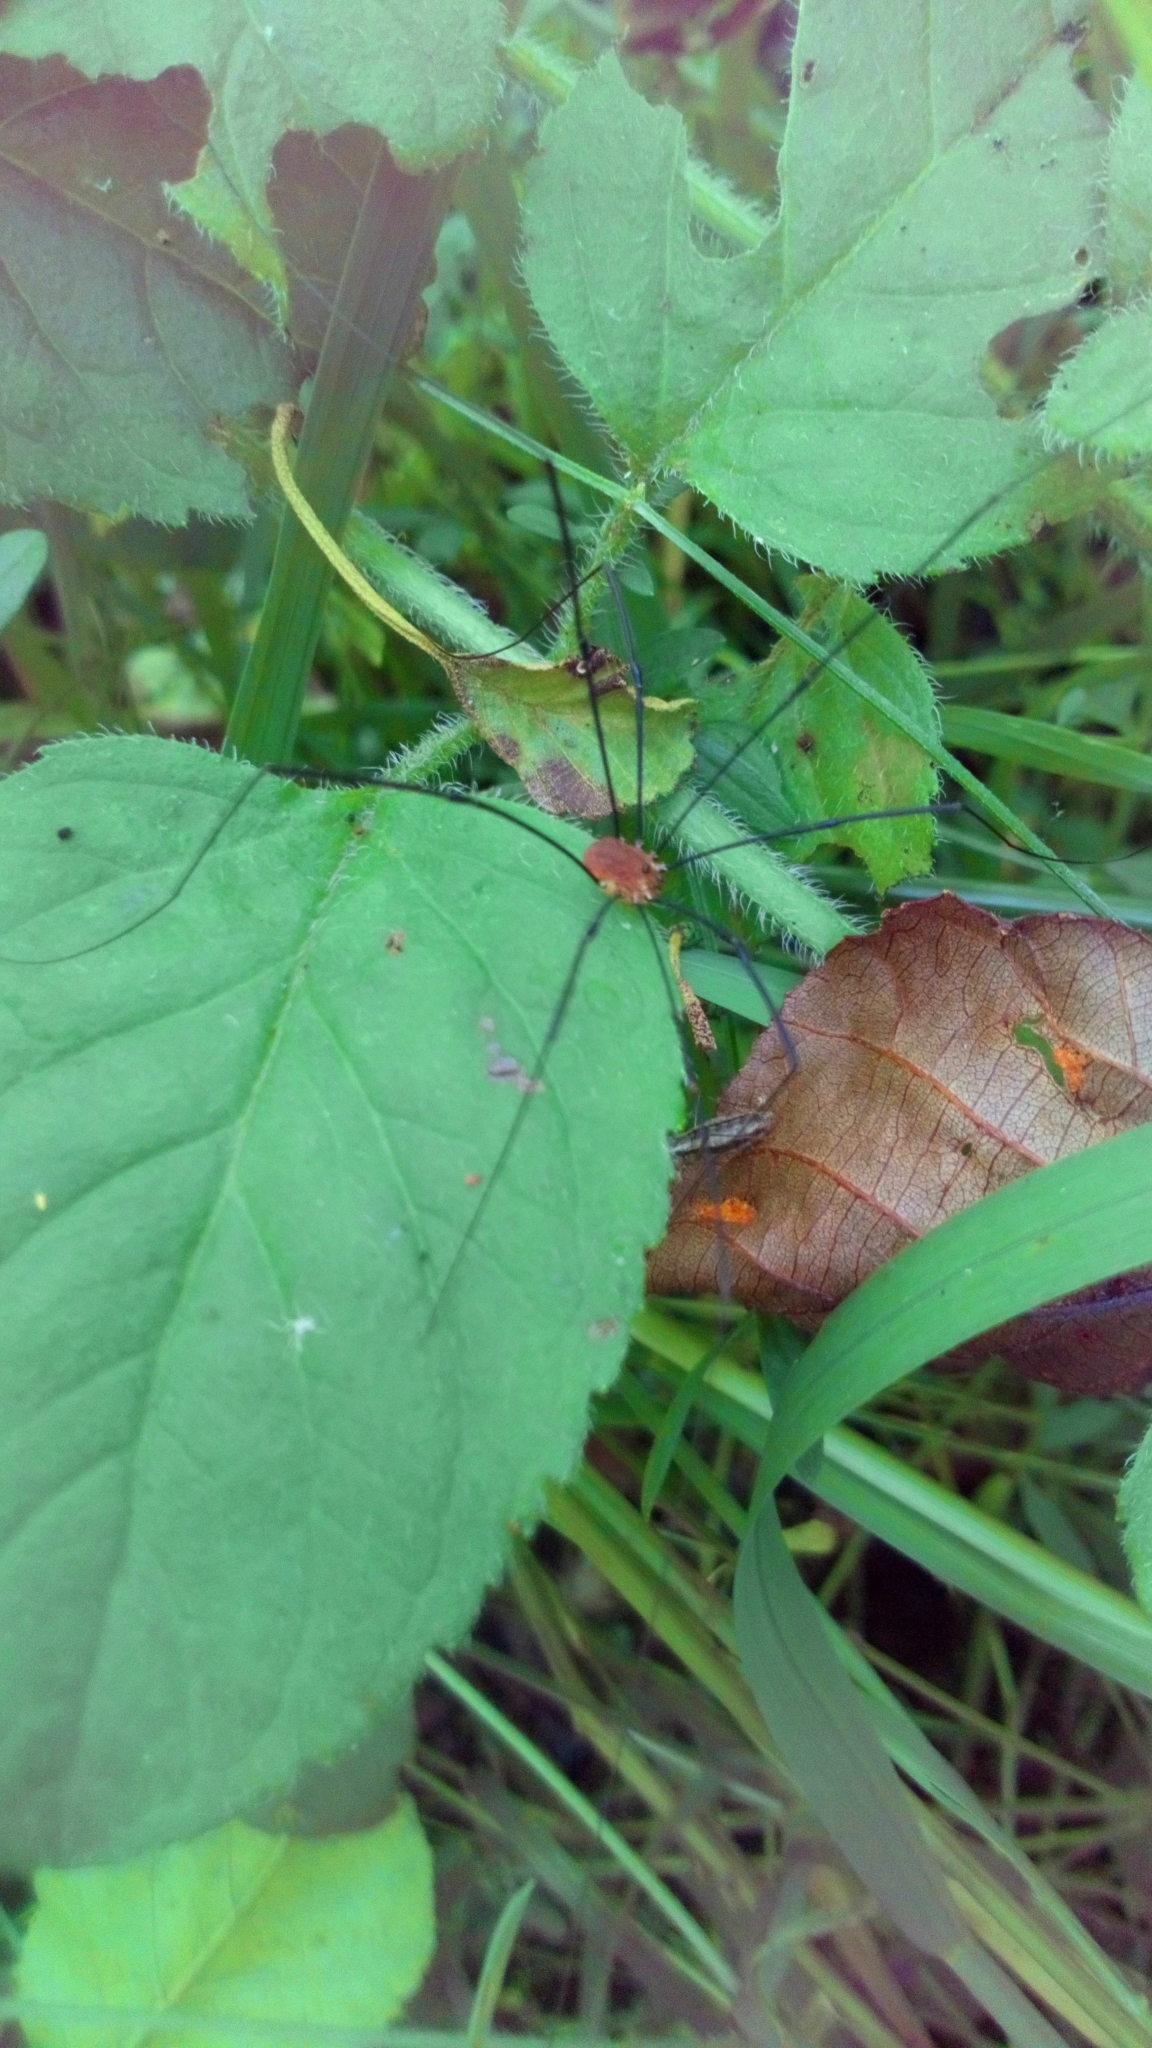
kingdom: Animalia
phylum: Arthropoda
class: Arachnida
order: Opiliones
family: Sclerosomatidae
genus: Leiobunum
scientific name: Leiobunum rotundum
